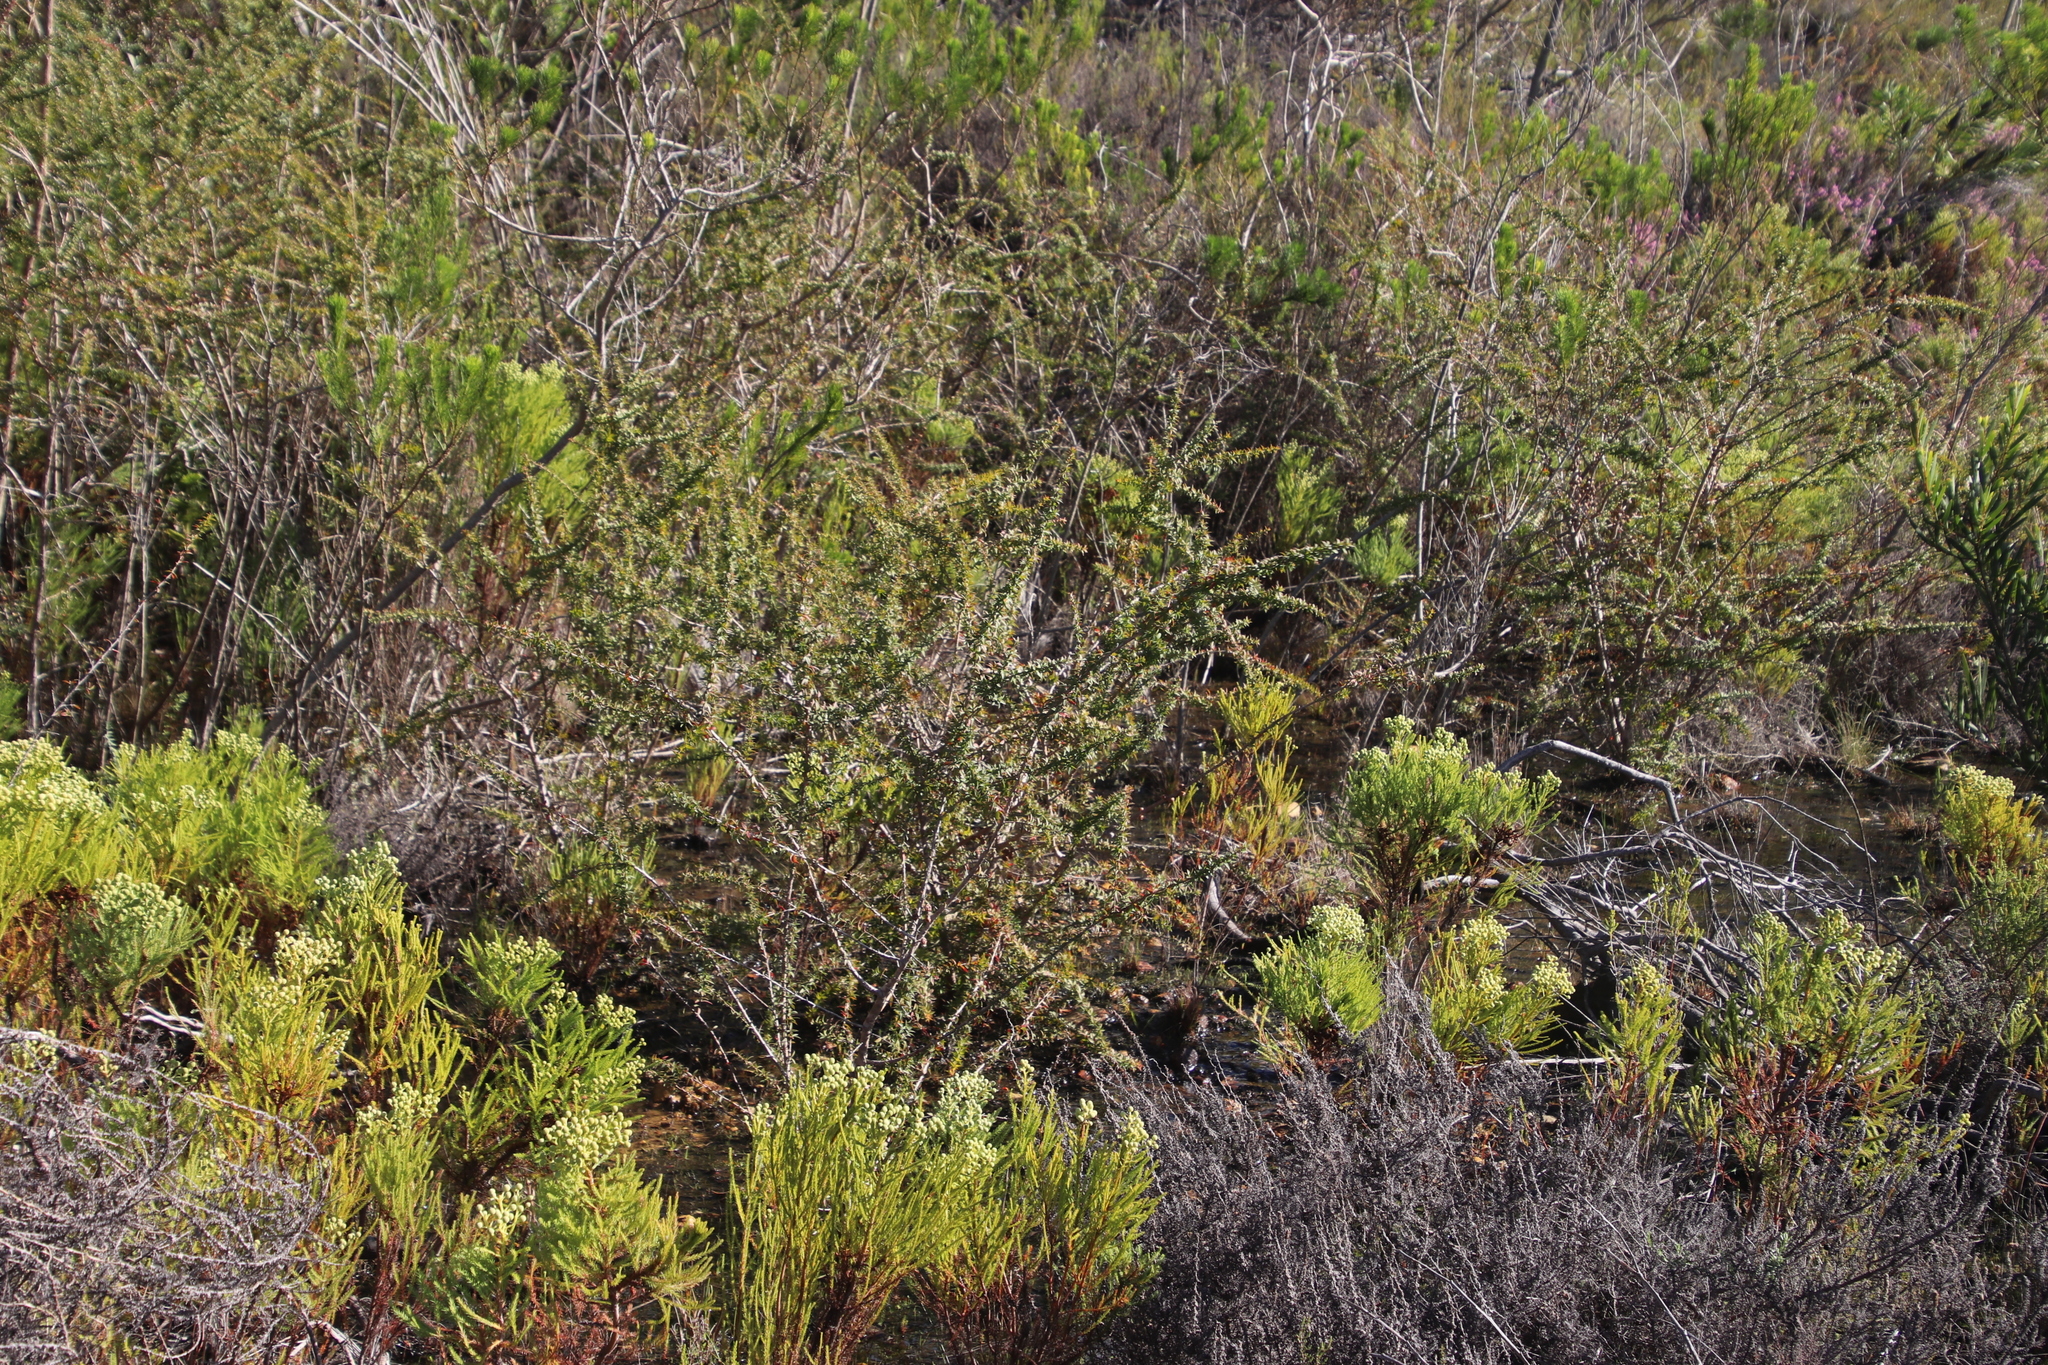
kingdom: Plantae
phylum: Tracheophyta
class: Magnoliopsida
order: Myrtales
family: Myrtaceae
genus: Leptospermum
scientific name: Leptospermum squarrosum
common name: Peach-blossom teatree
